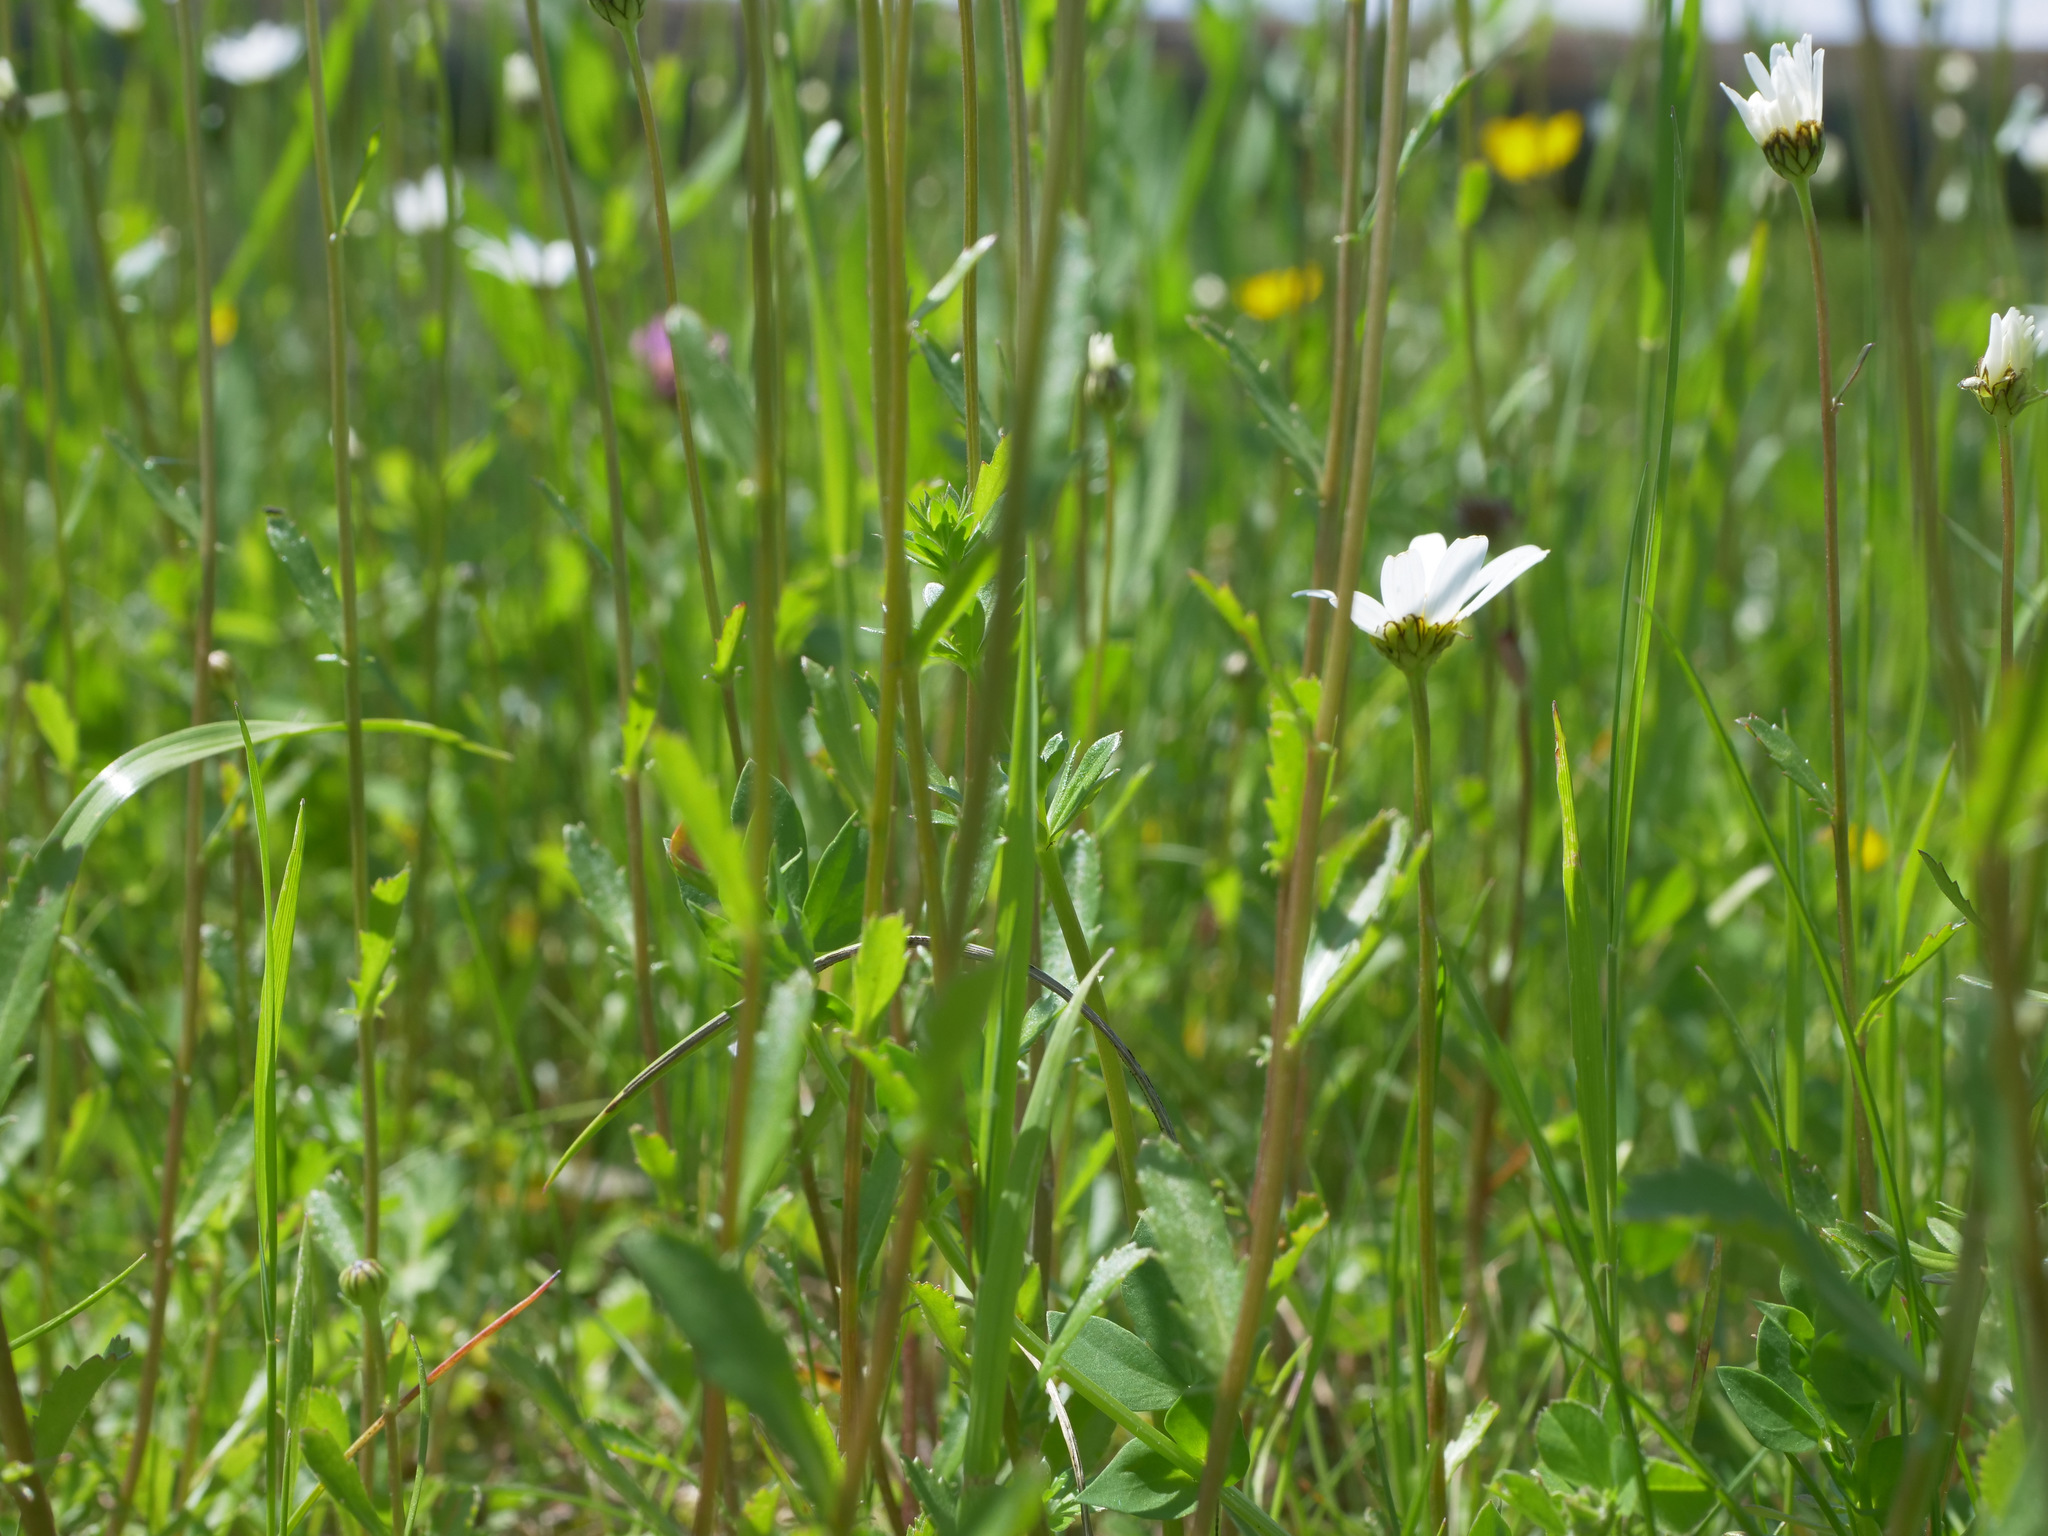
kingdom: Plantae
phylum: Tracheophyta
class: Magnoliopsida
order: Asterales
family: Asteraceae
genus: Leucanthemum
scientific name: Leucanthemum vulgare
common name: Oxeye daisy
